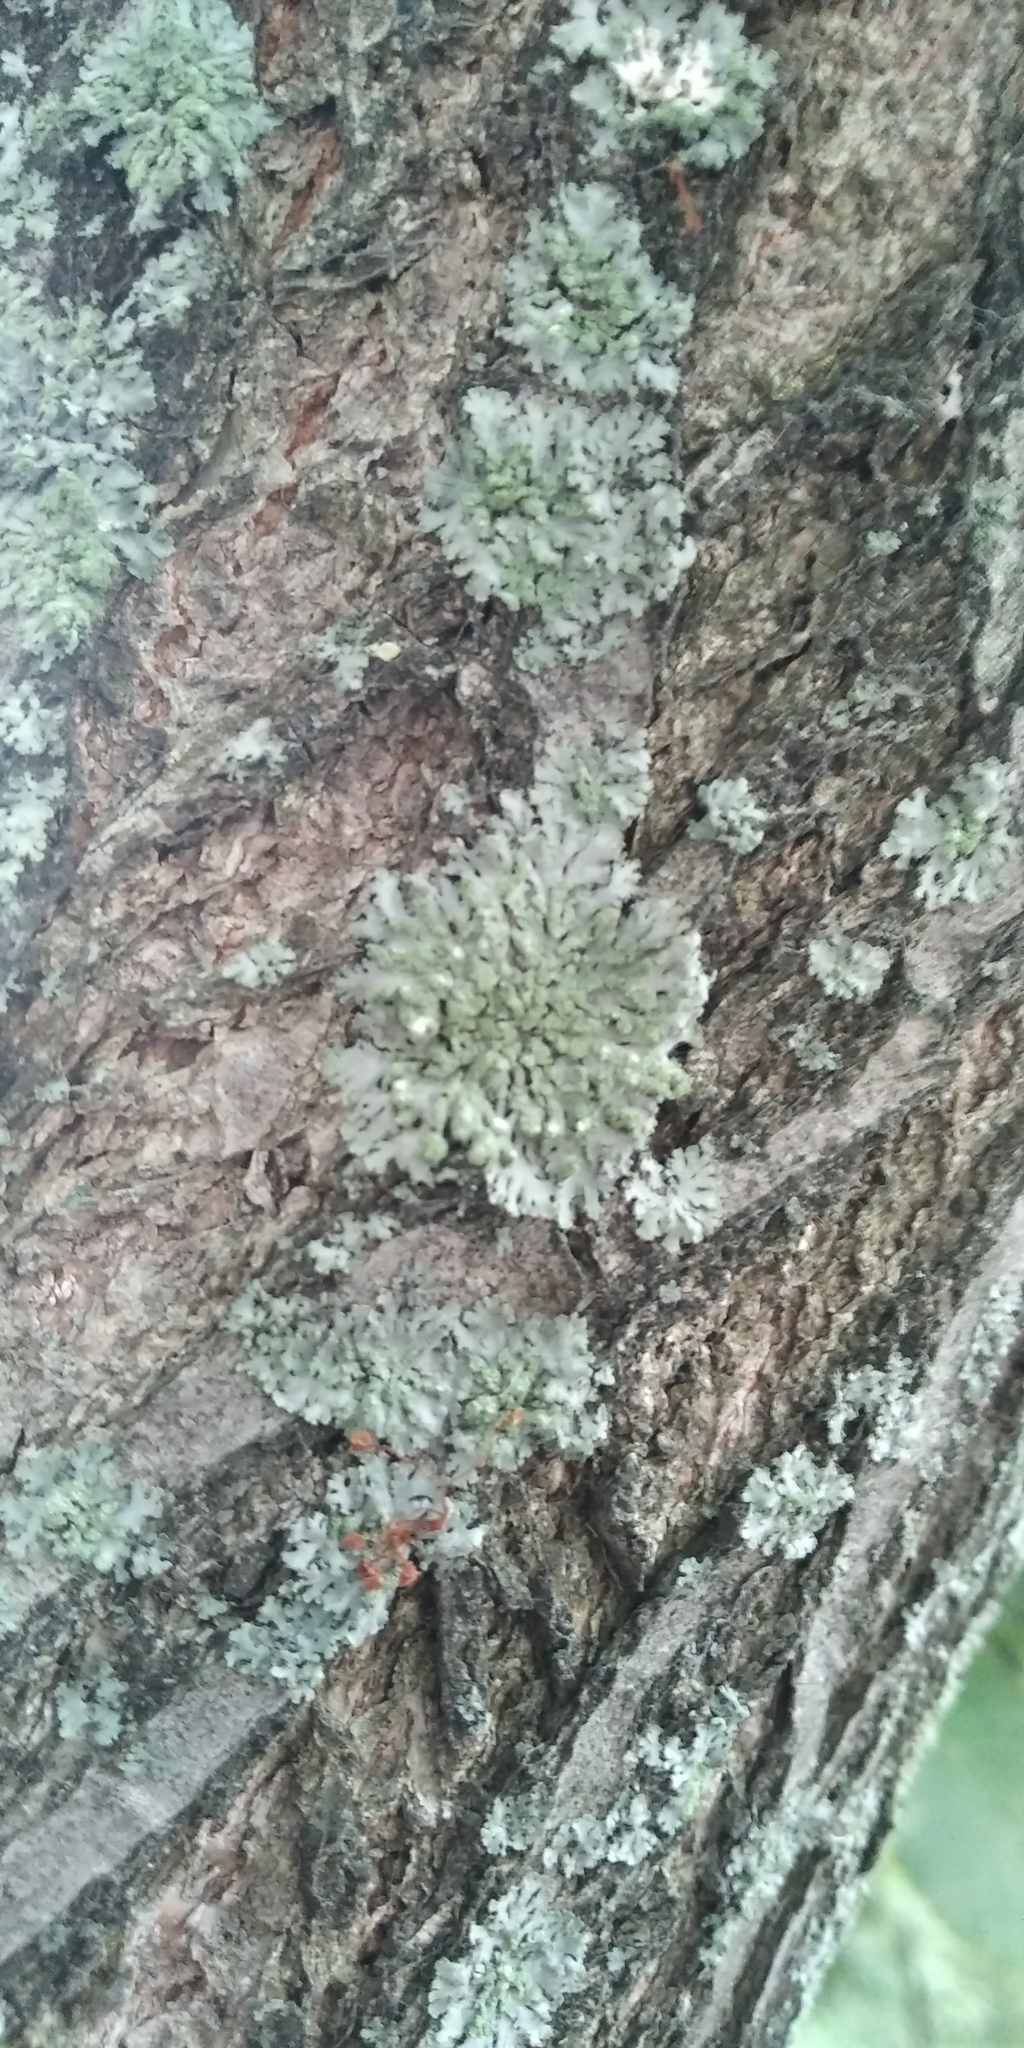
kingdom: Fungi
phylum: Ascomycota
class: Lecanoromycetes
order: Caliciales
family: Physciaceae
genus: Phaeophyscia
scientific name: Phaeophyscia orbicularis
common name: Mealy shadow lichen
